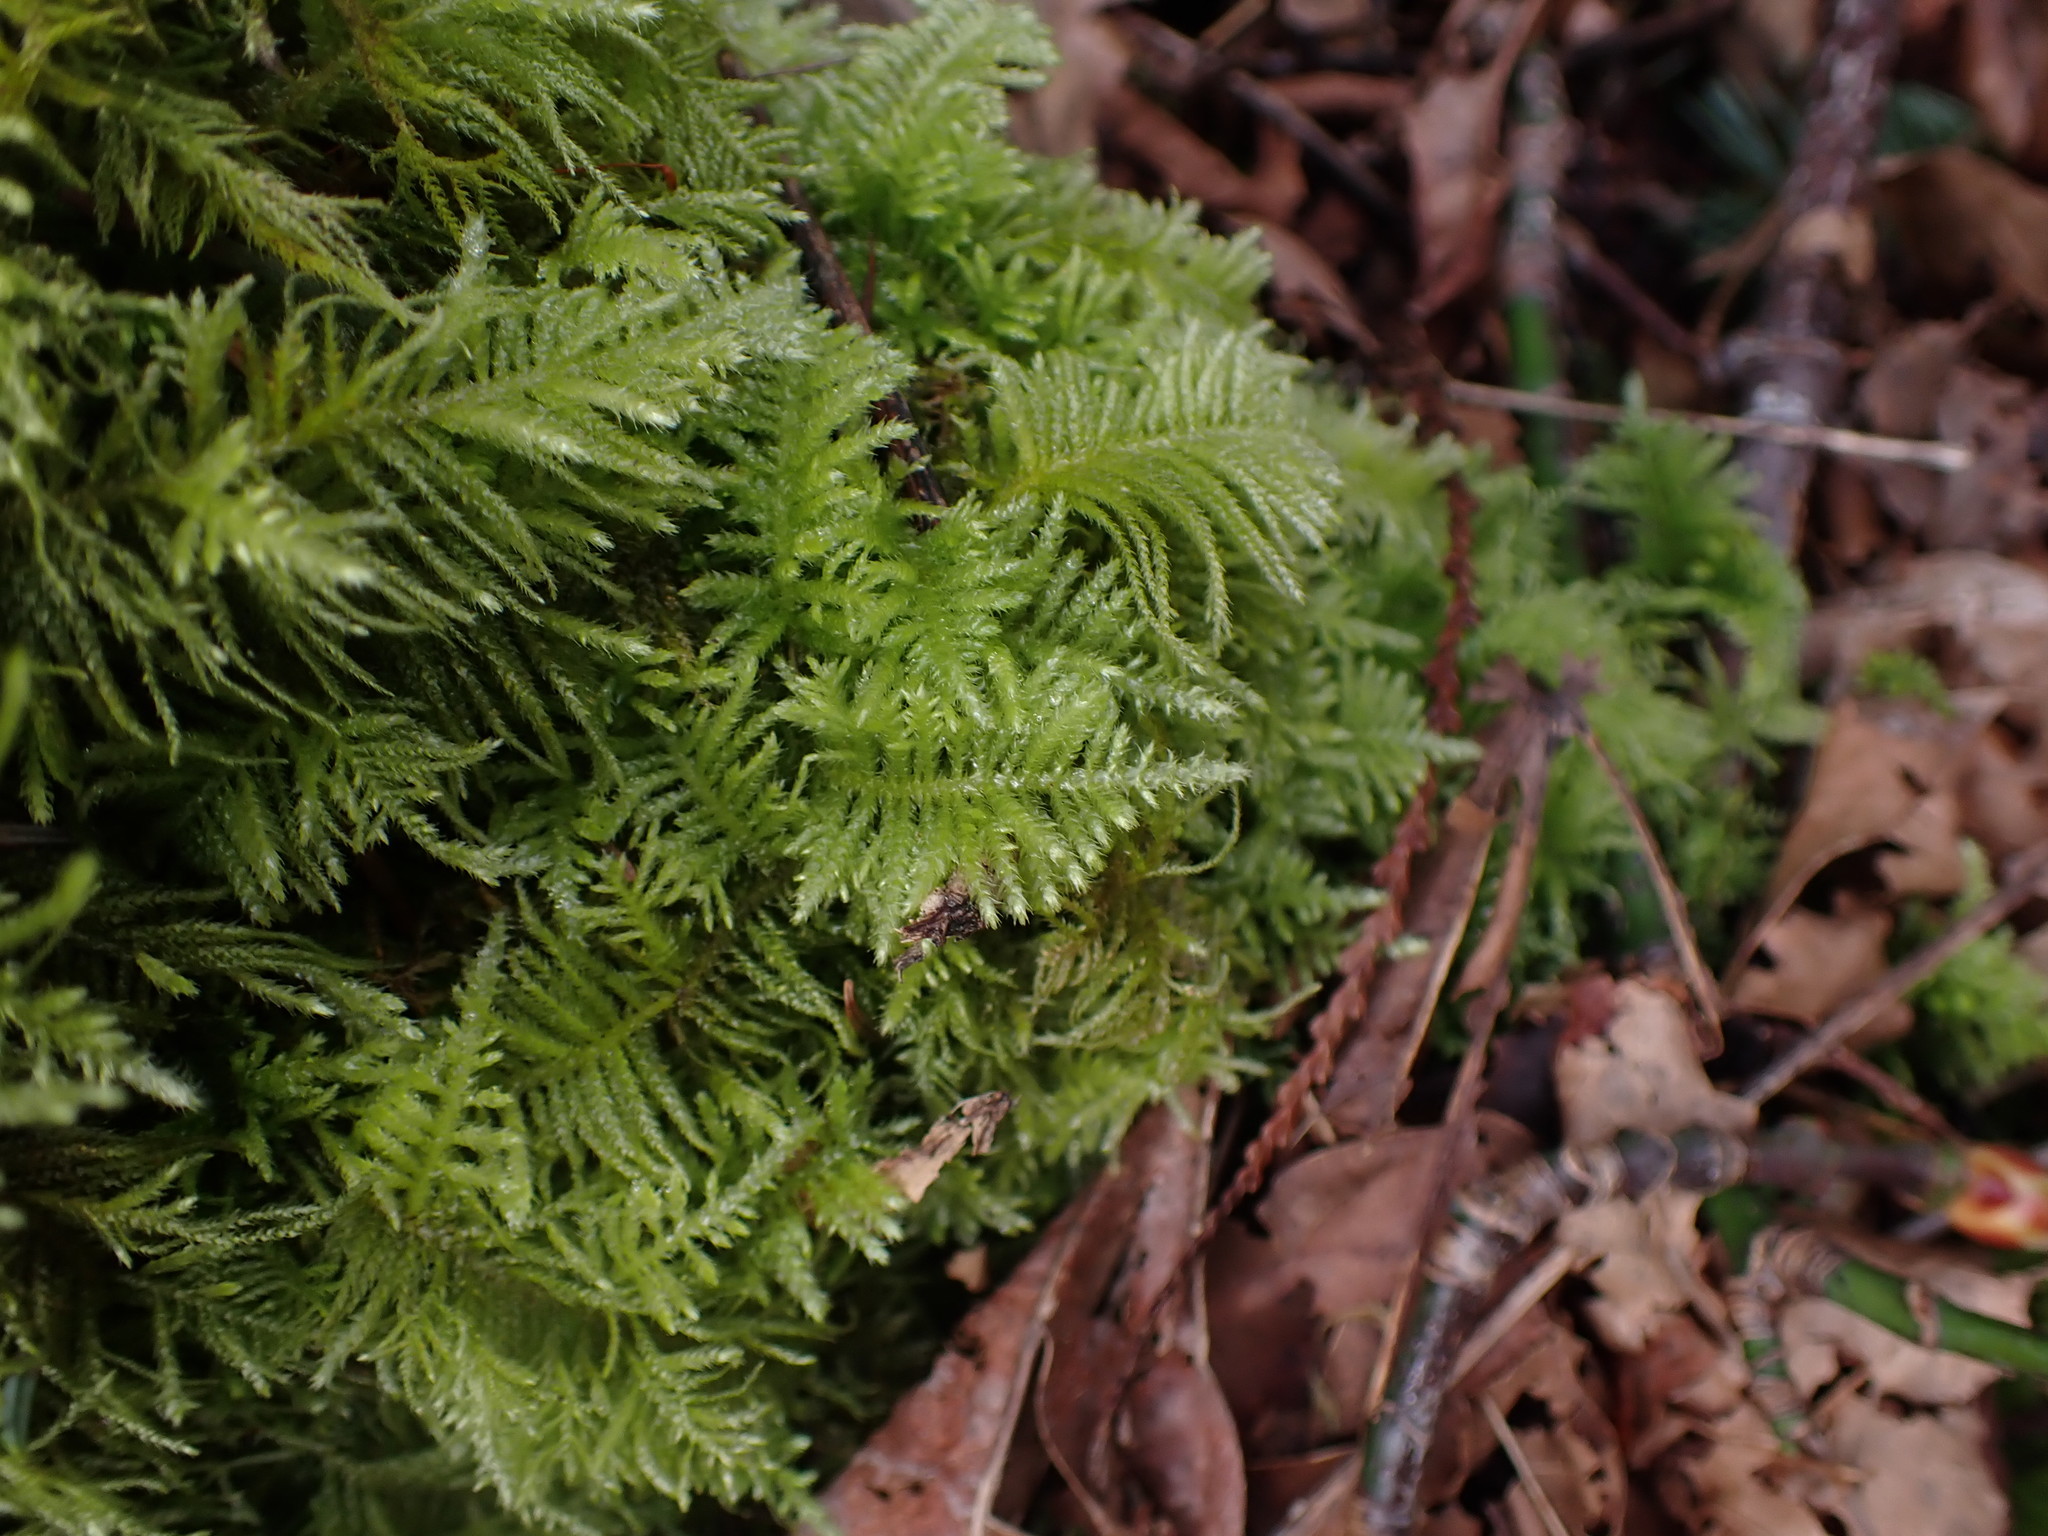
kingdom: Plantae
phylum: Bryophyta
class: Bryopsida
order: Hypnales
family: Brachytheciaceae
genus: Kindbergia
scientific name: Kindbergia oregana
